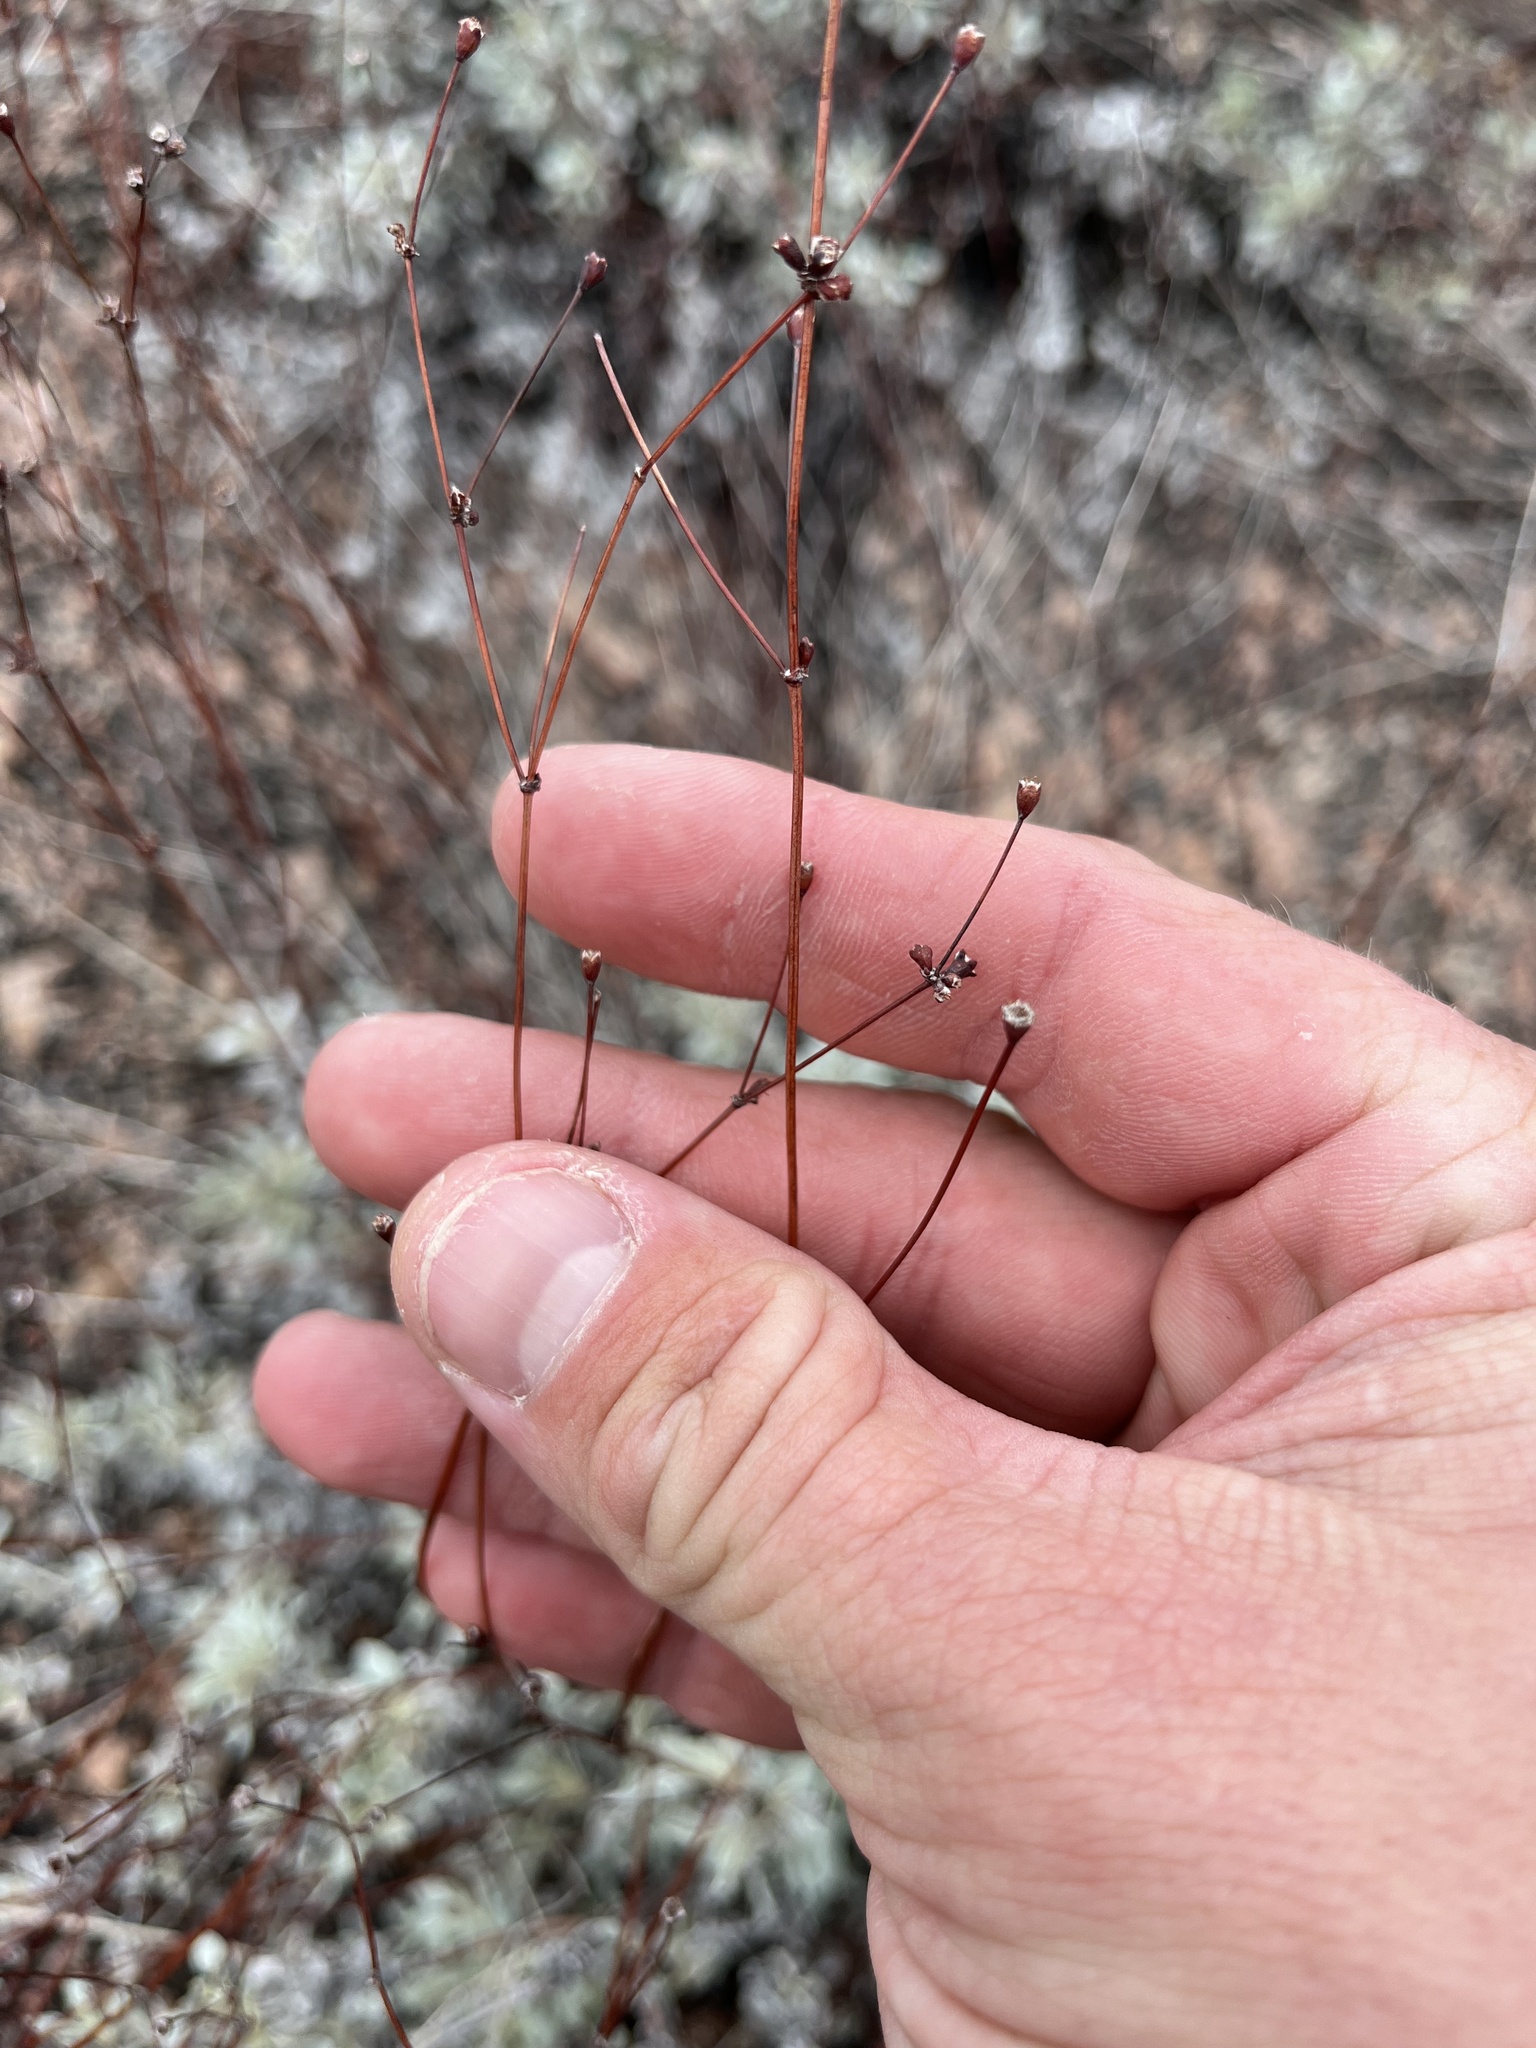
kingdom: Plantae
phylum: Tracheophyta
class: Magnoliopsida
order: Caryophyllales
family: Polygonaceae
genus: Eriogonum
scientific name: Eriogonum tenellum
